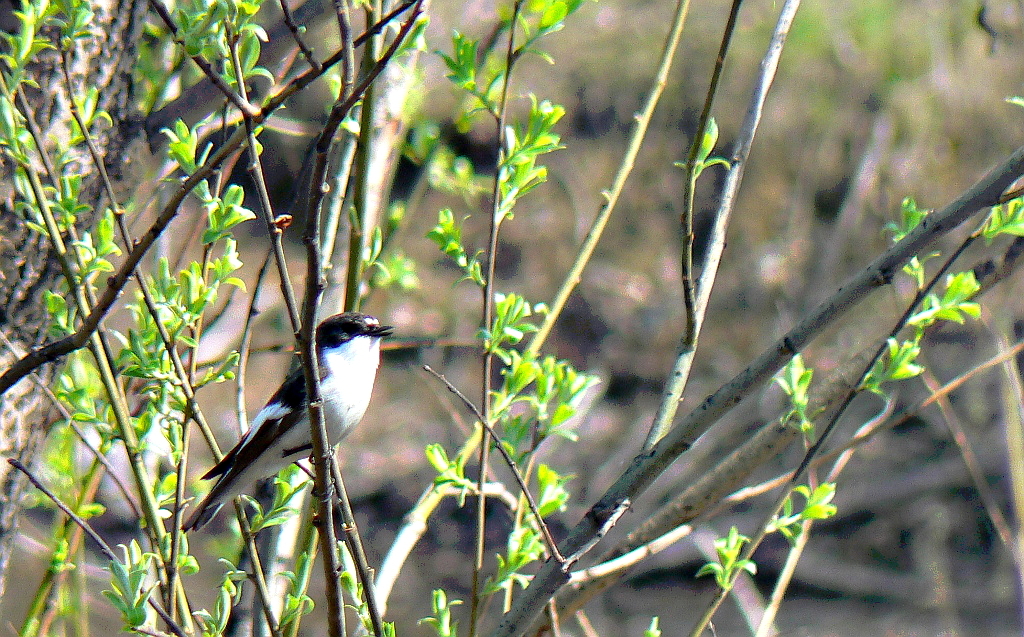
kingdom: Animalia
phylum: Chordata
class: Aves
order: Passeriformes
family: Muscicapidae
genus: Ficedula
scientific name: Ficedula hypoleuca
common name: European pied flycatcher
